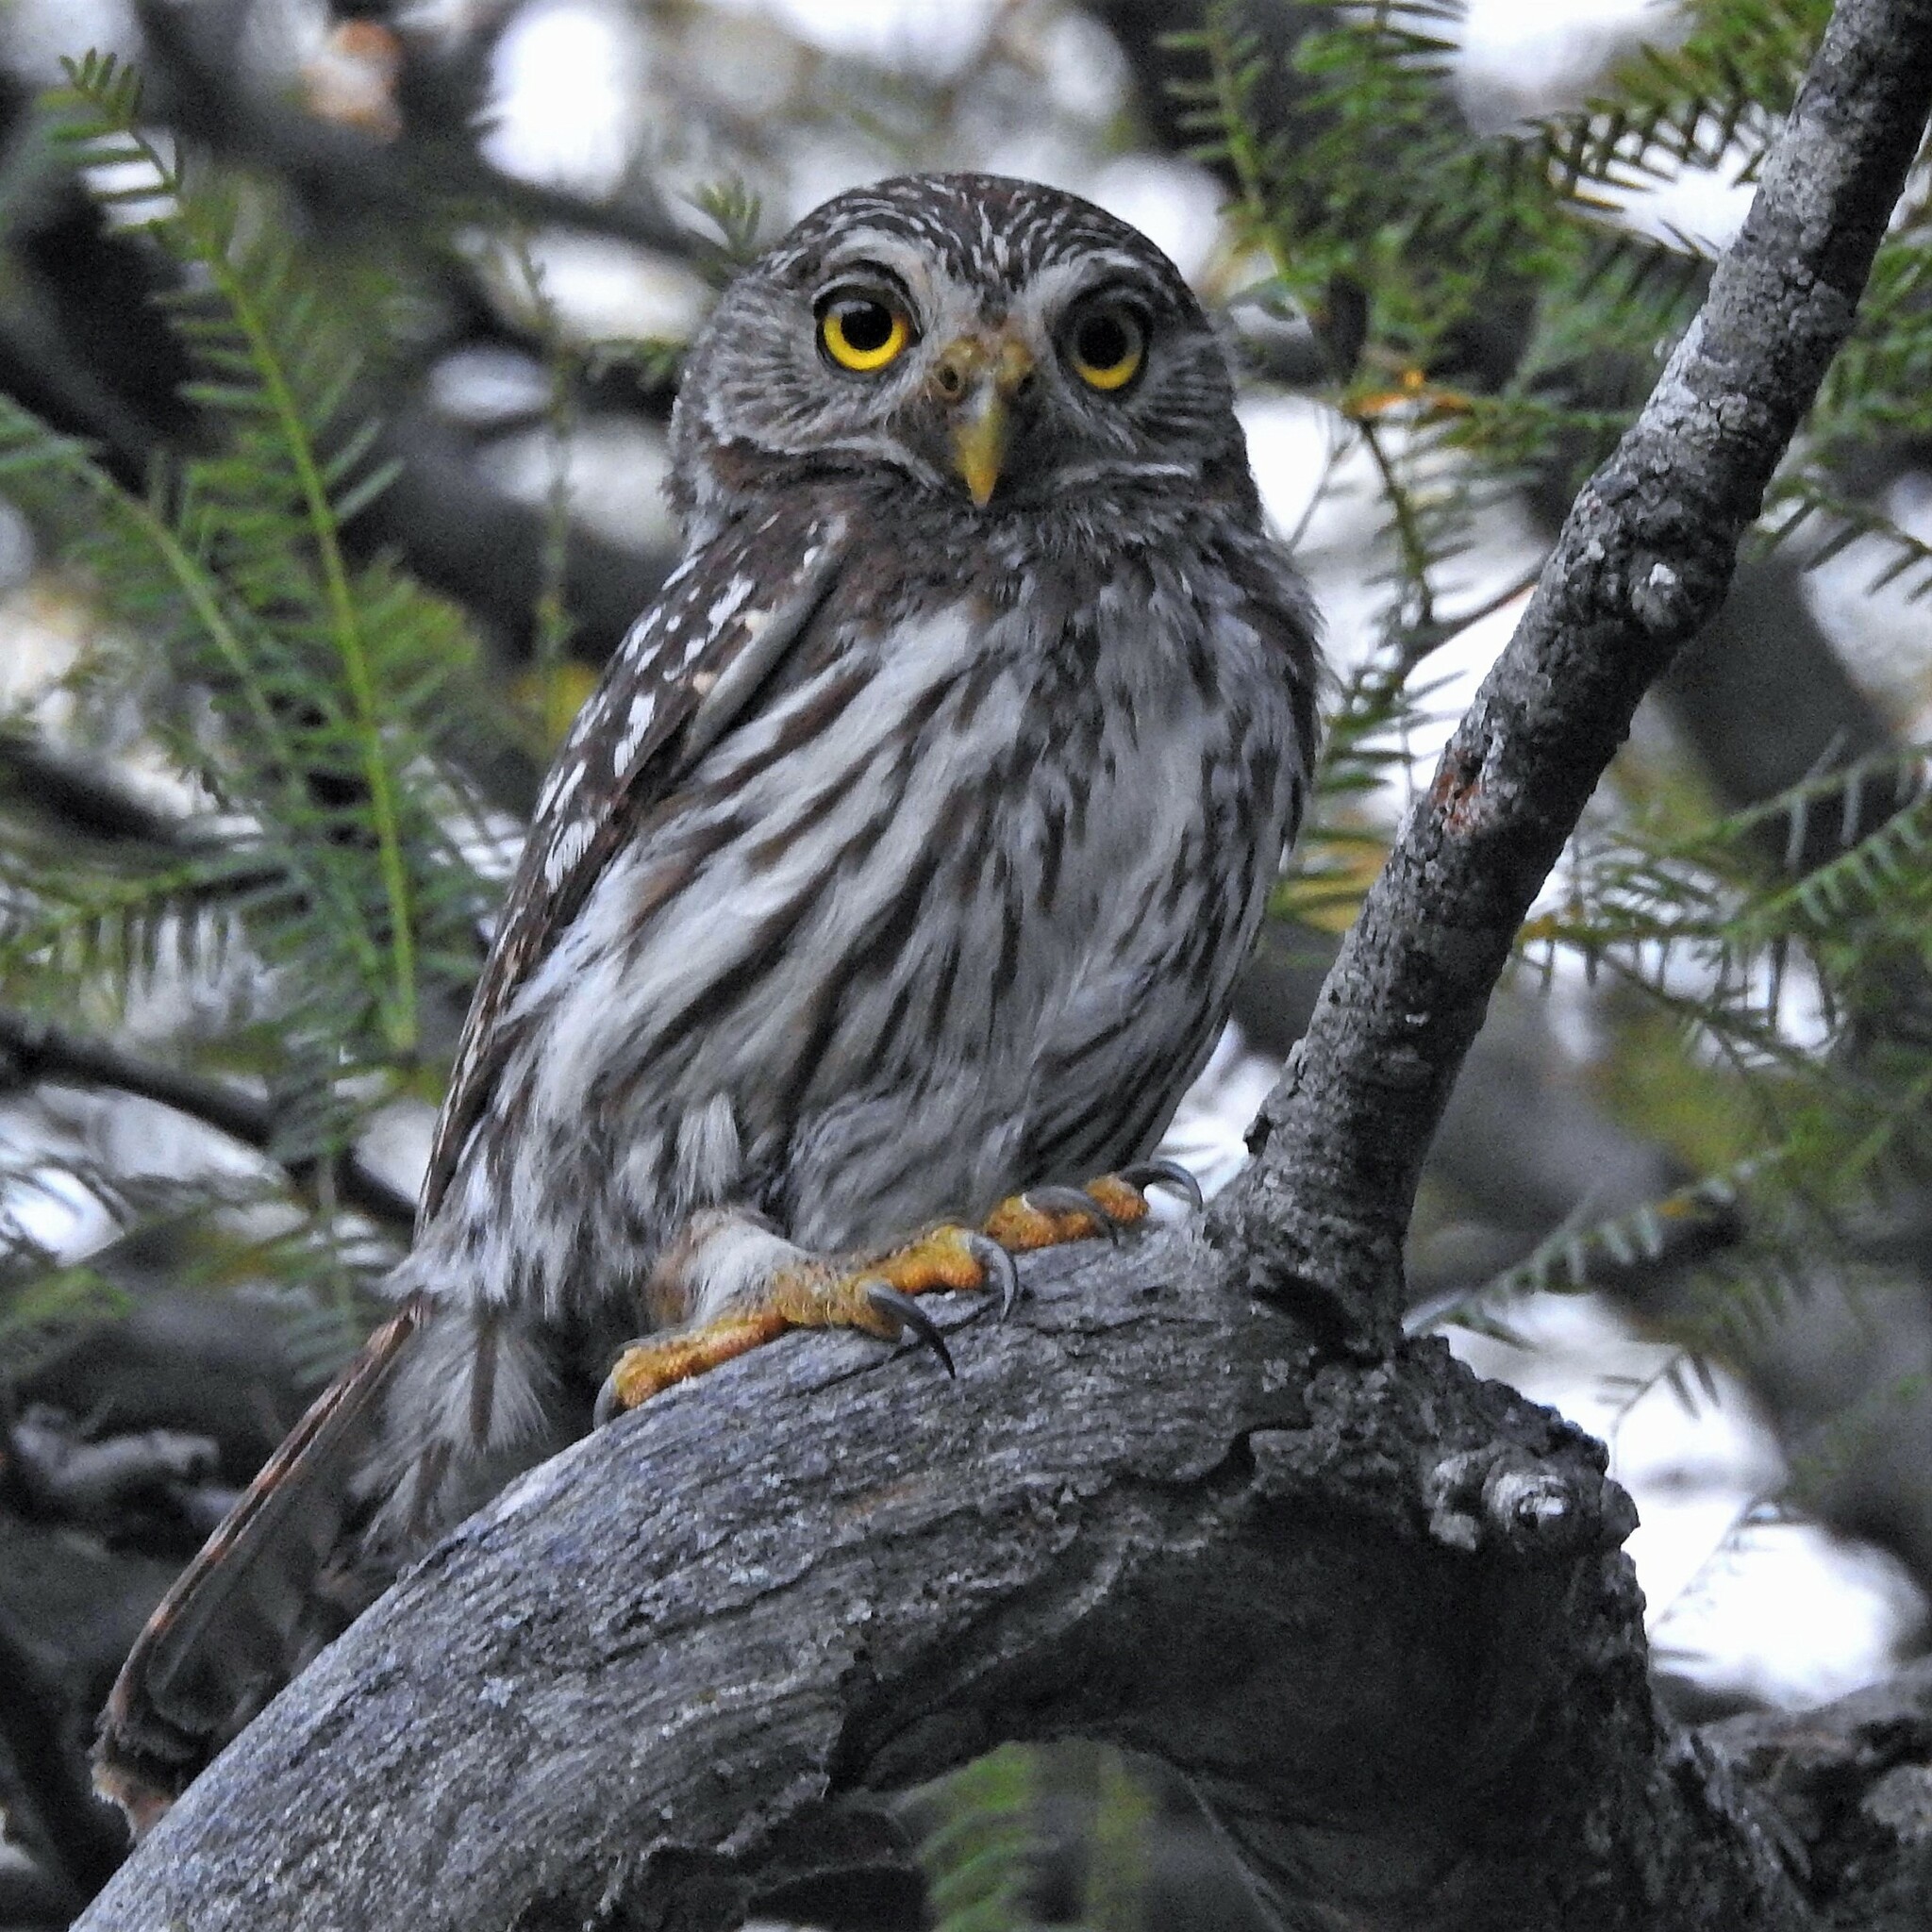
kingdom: Animalia
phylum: Chordata
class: Aves
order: Strigiformes
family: Strigidae
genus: Glaucidium
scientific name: Glaucidium brasilianum
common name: Ferruginous pygmy-owl
